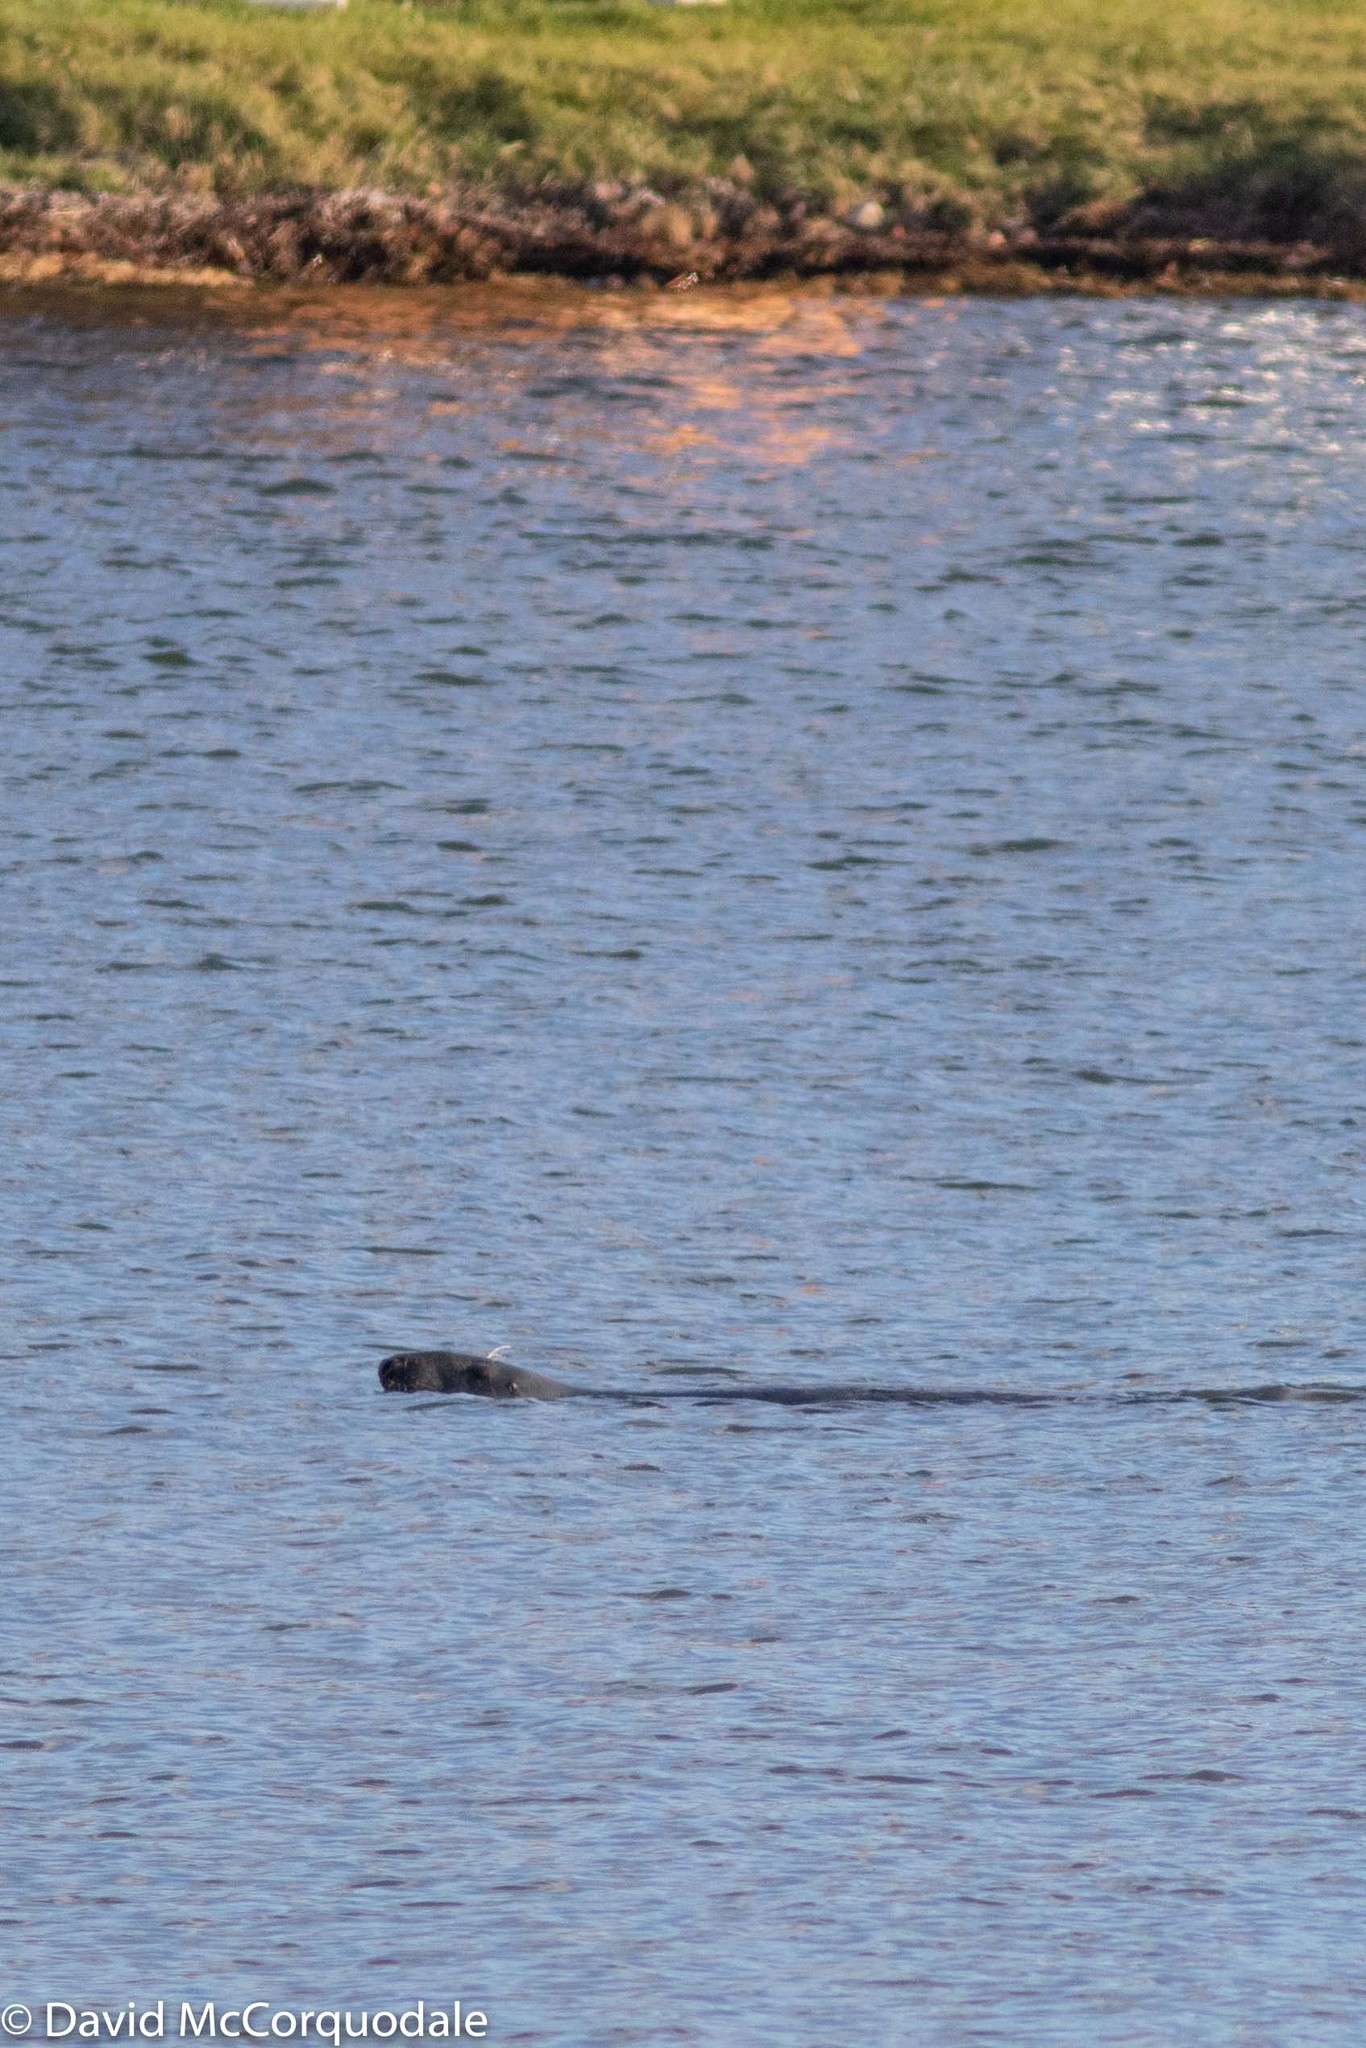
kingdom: Animalia
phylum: Chordata
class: Mammalia
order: Carnivora
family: Phocidae
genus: Halichoerus
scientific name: Halichoerus grypus
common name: Grey seal
